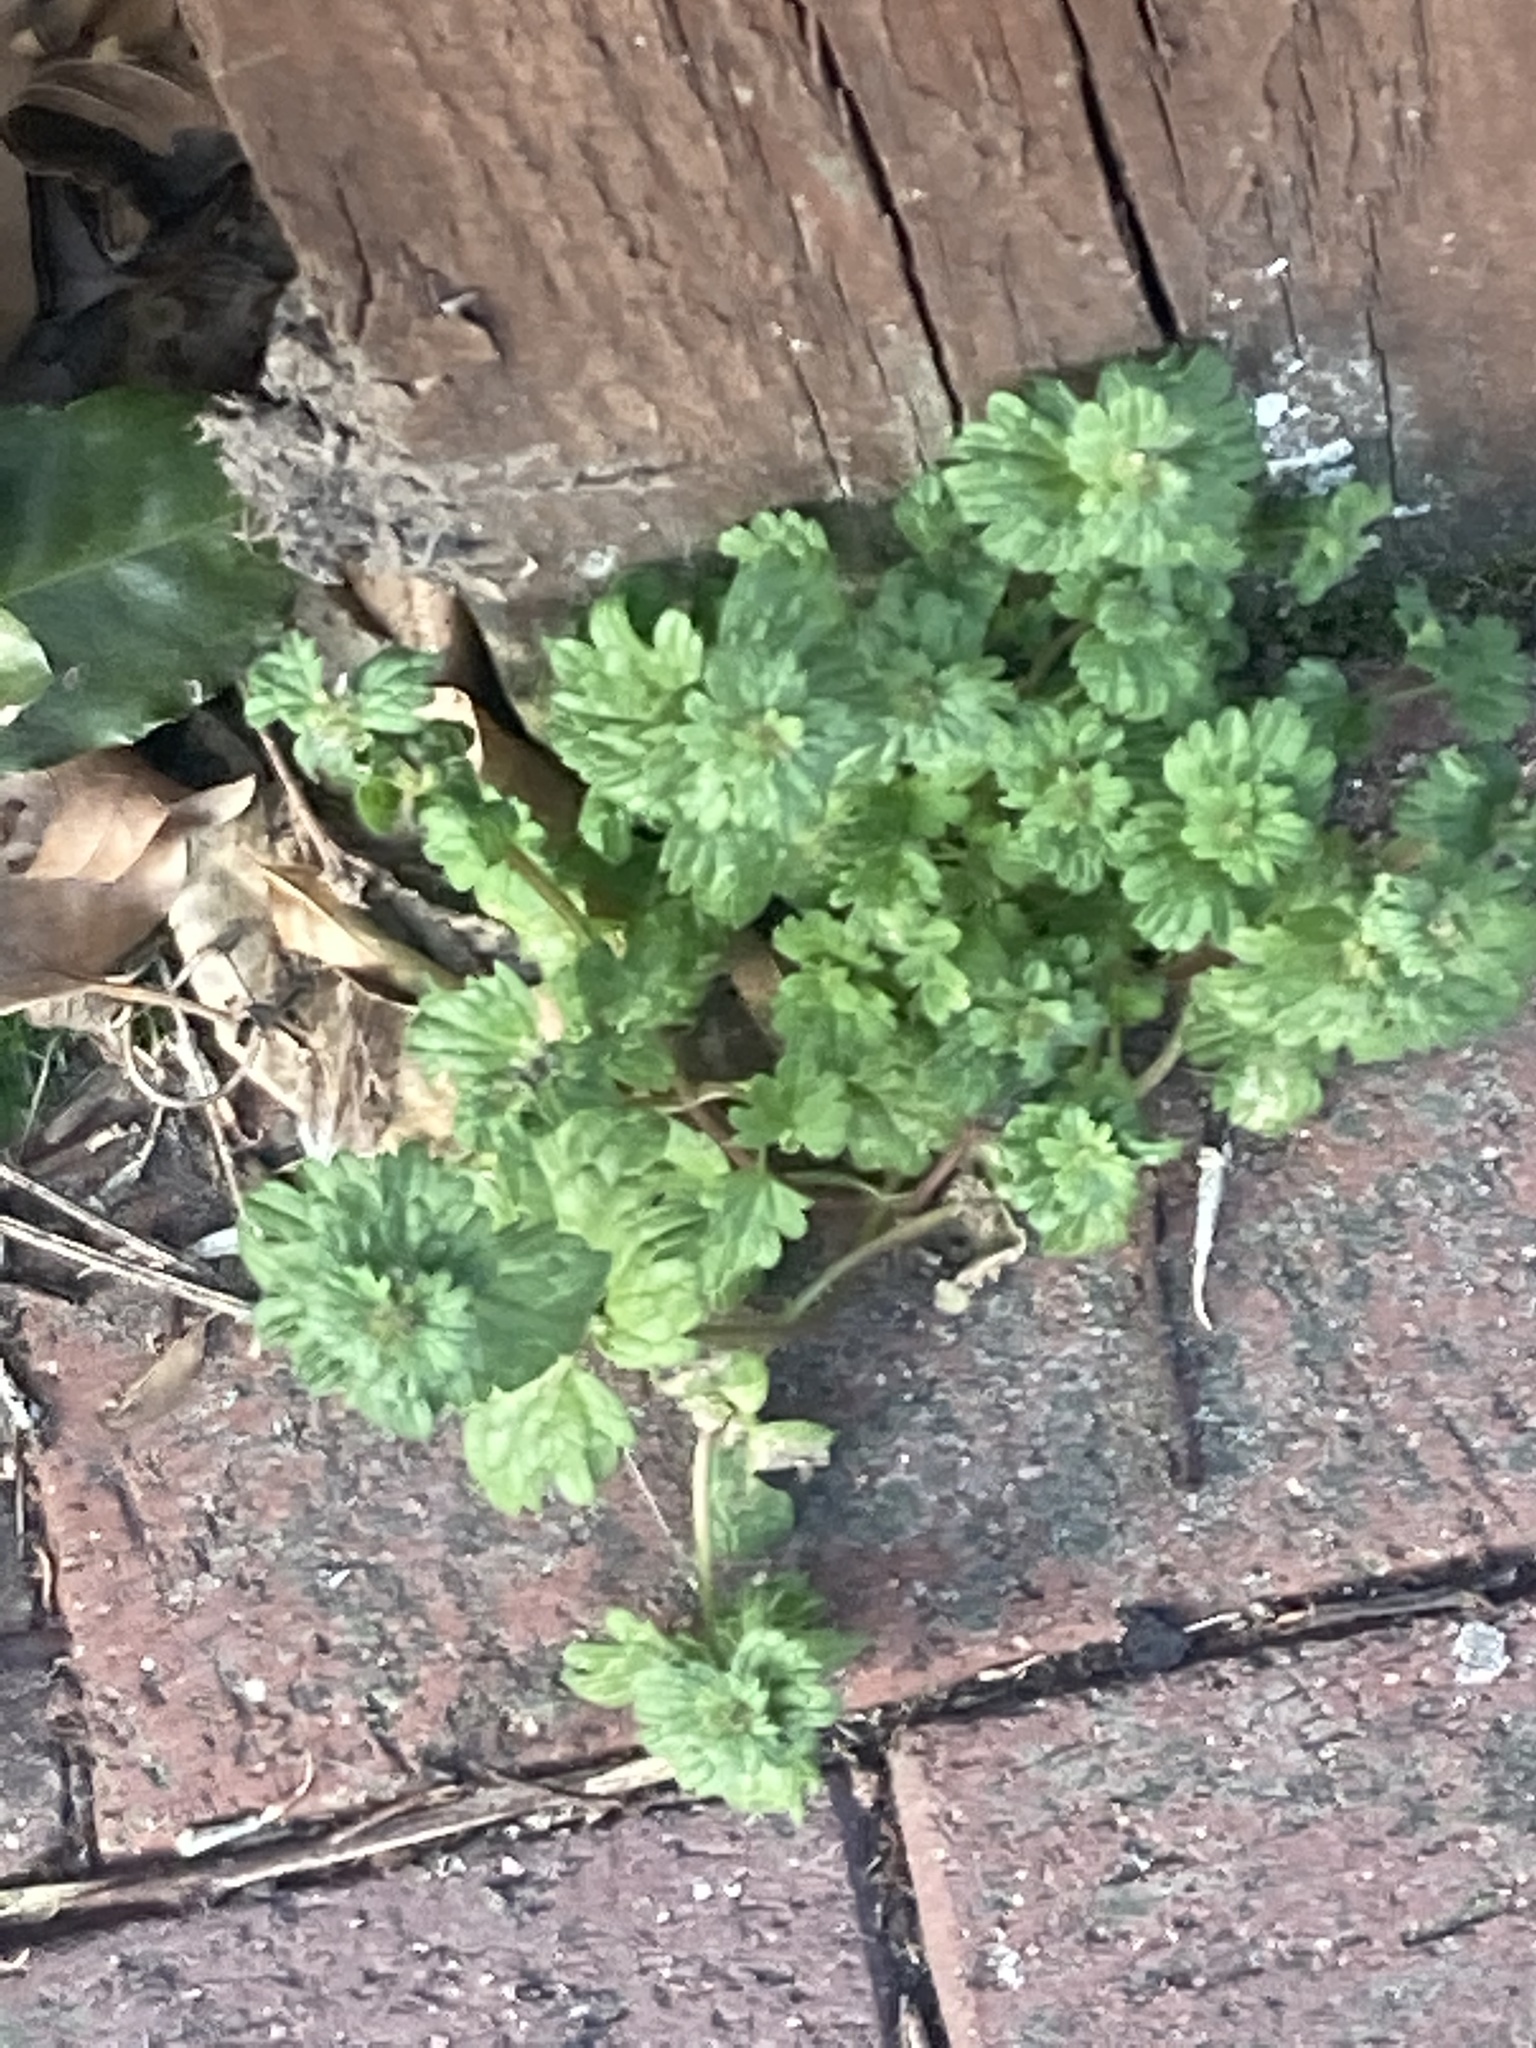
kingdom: Plantae
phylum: Tracheophyta
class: Magnoliopsida
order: Lamiales
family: Lamiaceae
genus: Lamium
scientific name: Lamium amplexicaule
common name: Henbit dead-nettle
